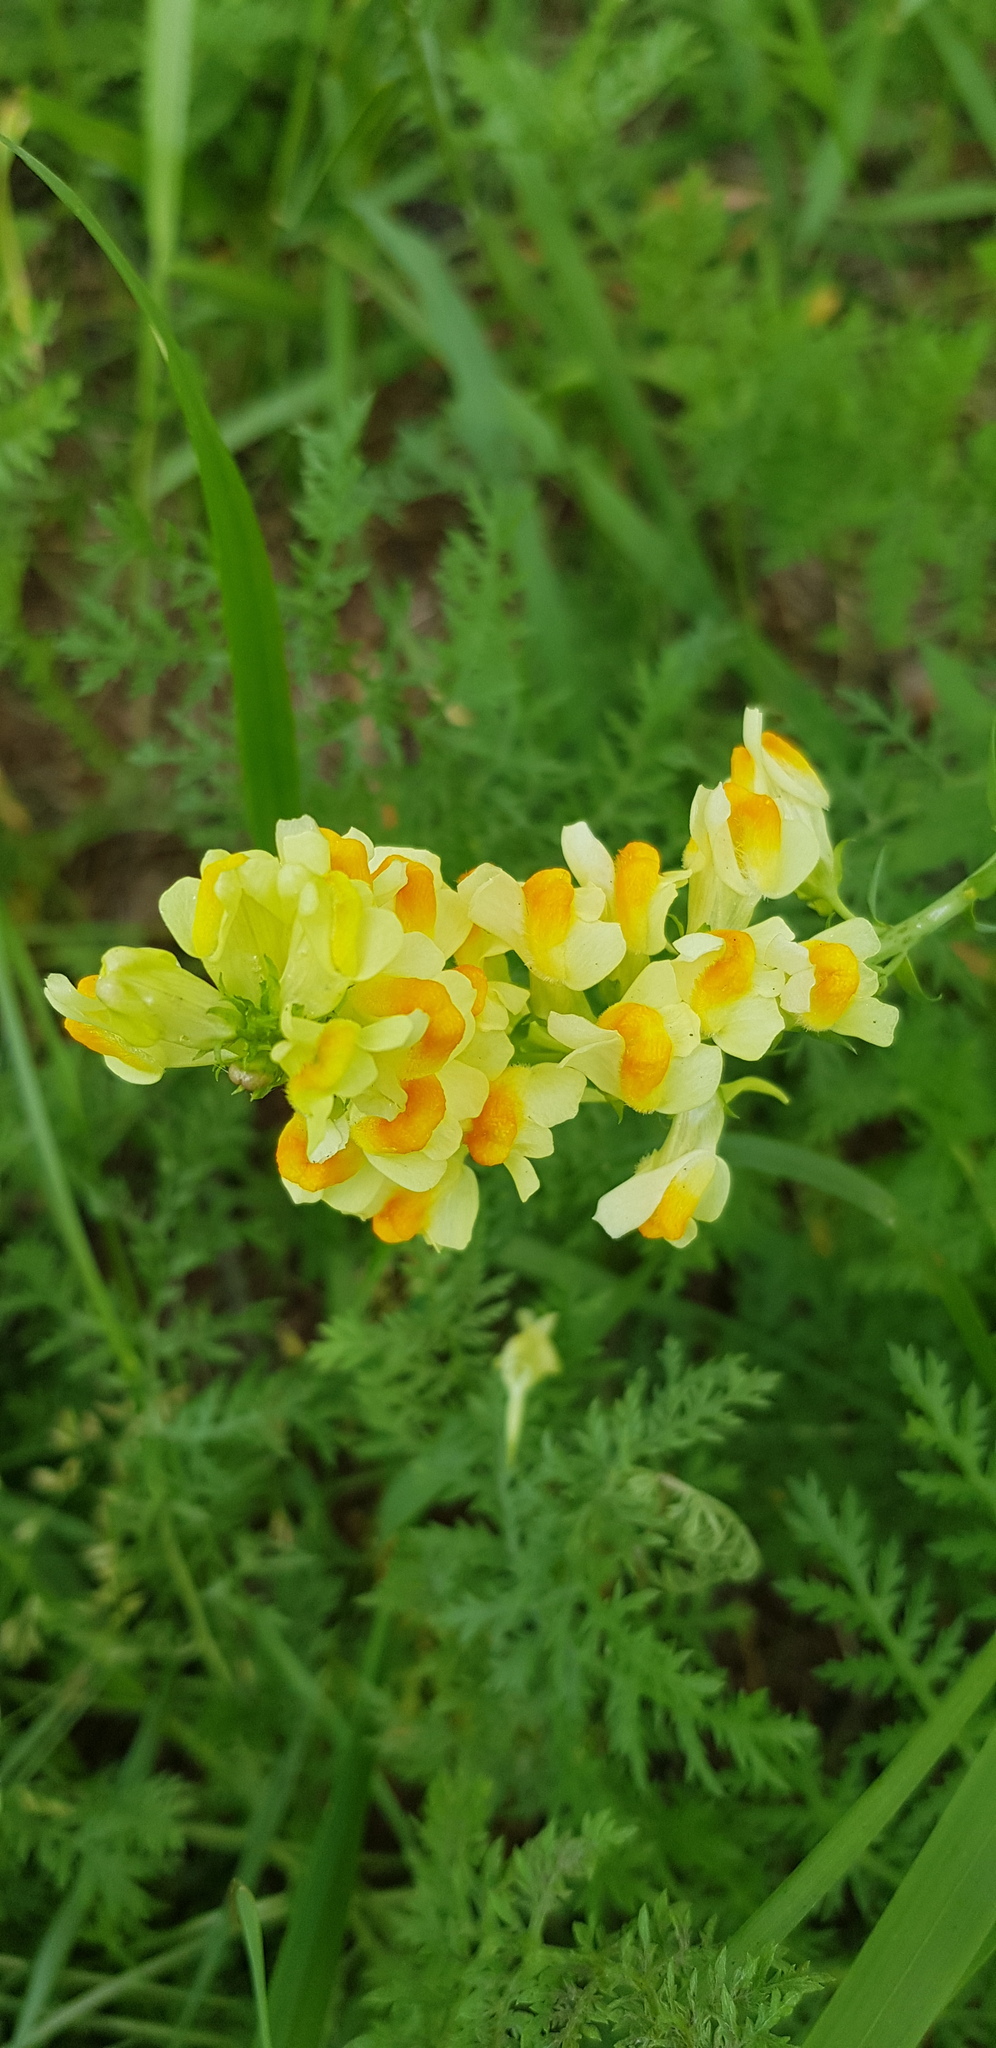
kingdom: Plantae
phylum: Tracheophyta
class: Magnoliopsida
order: Lamiales
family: Plantaginaceae
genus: Linaria
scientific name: Linaria buriatica
